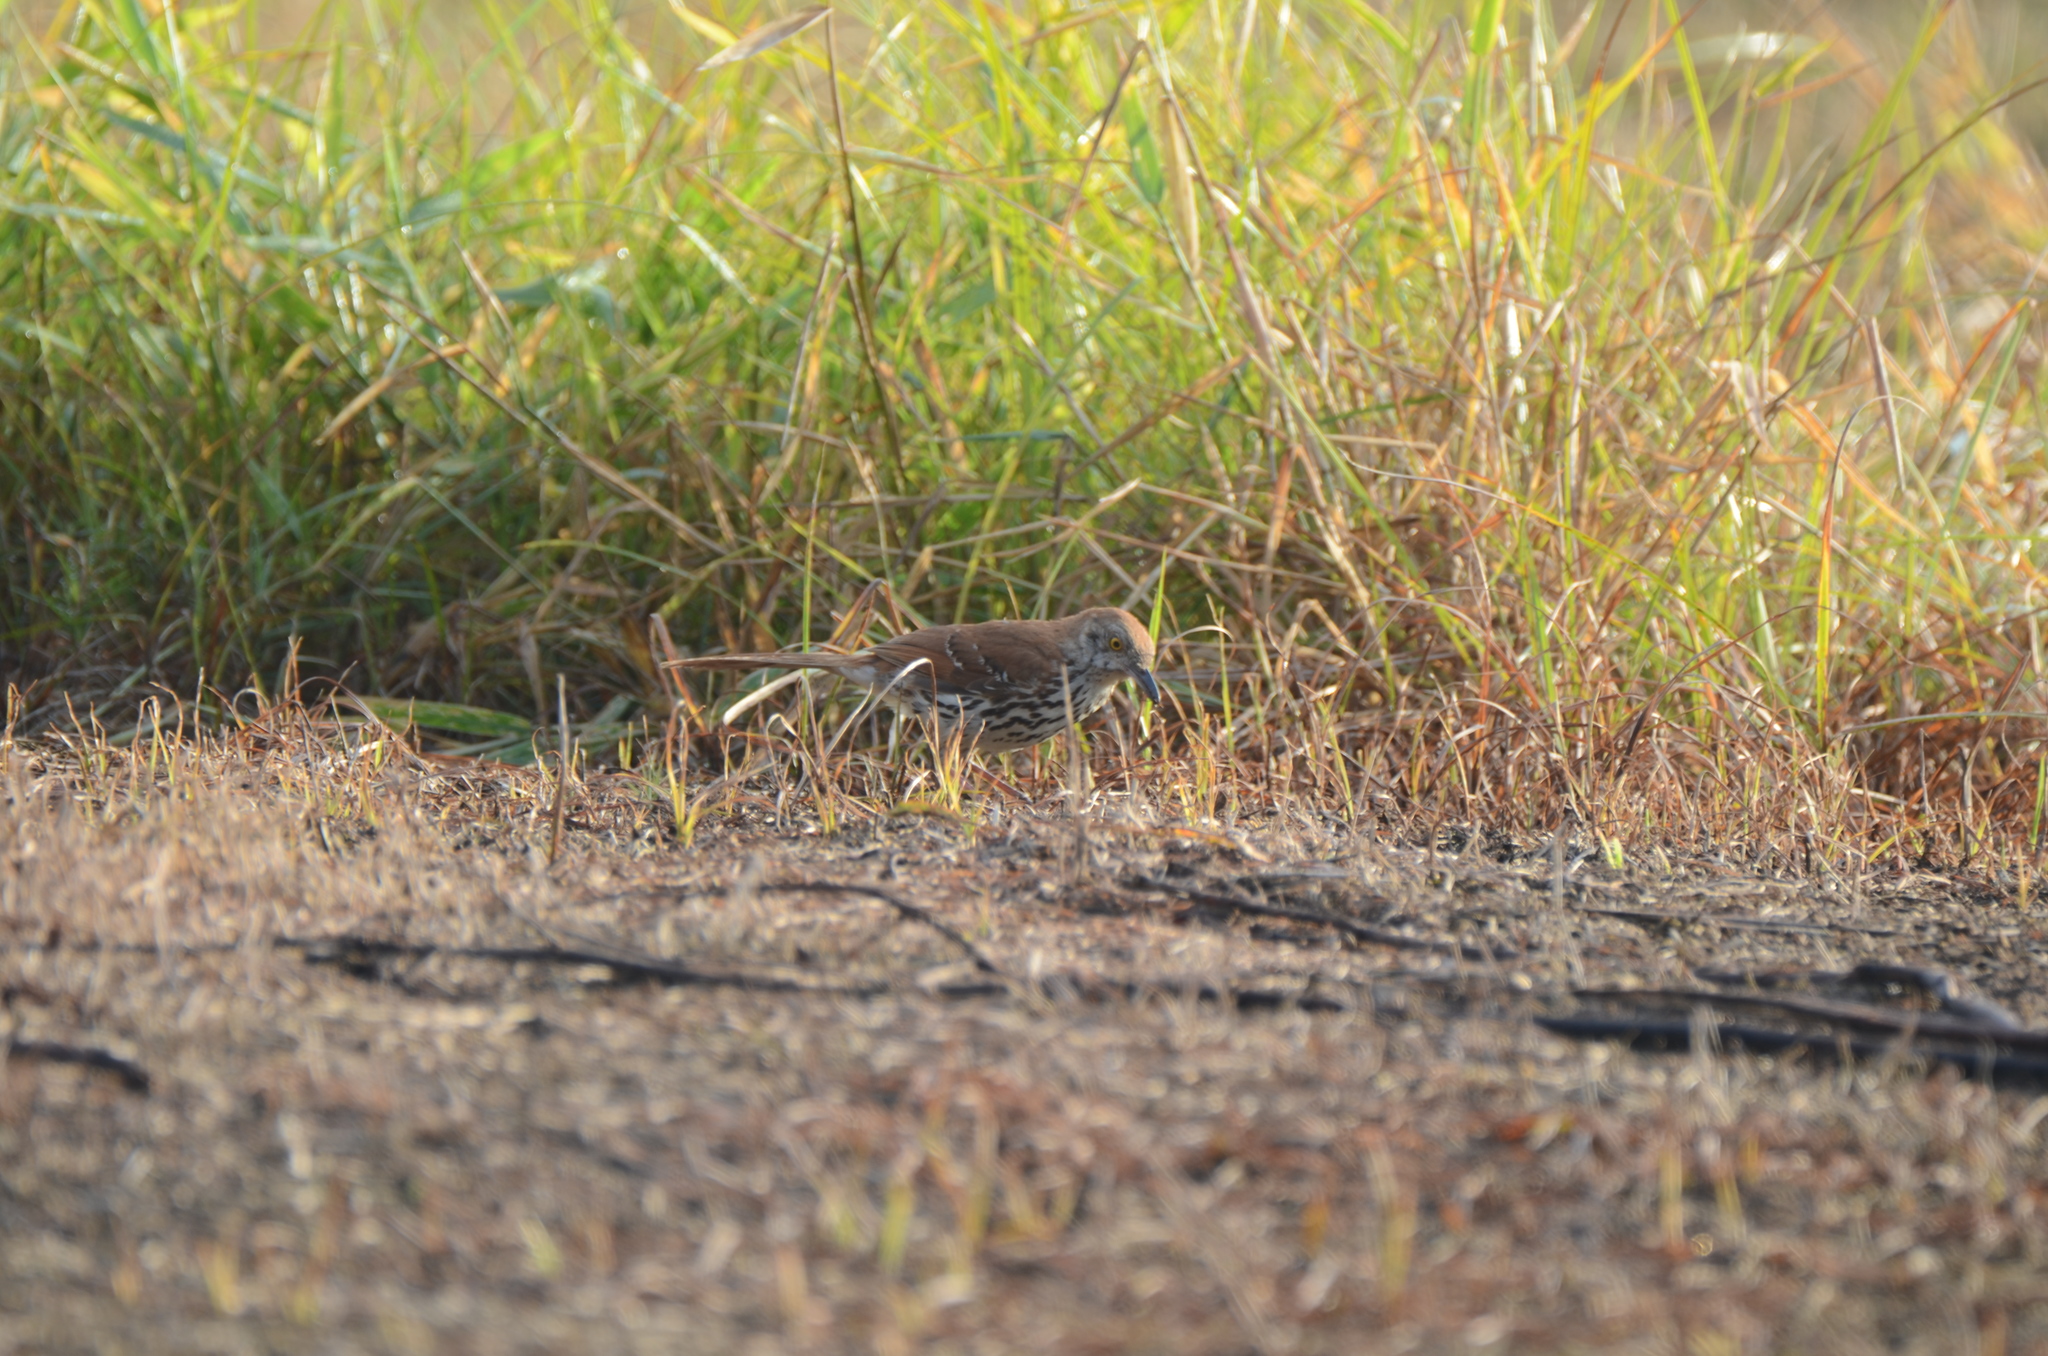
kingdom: Animalia
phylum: Chordata
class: Aves
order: Passeriformes
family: Mimidae
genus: Toxostoma
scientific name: Toxostoma rufum
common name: Brown thrasher
